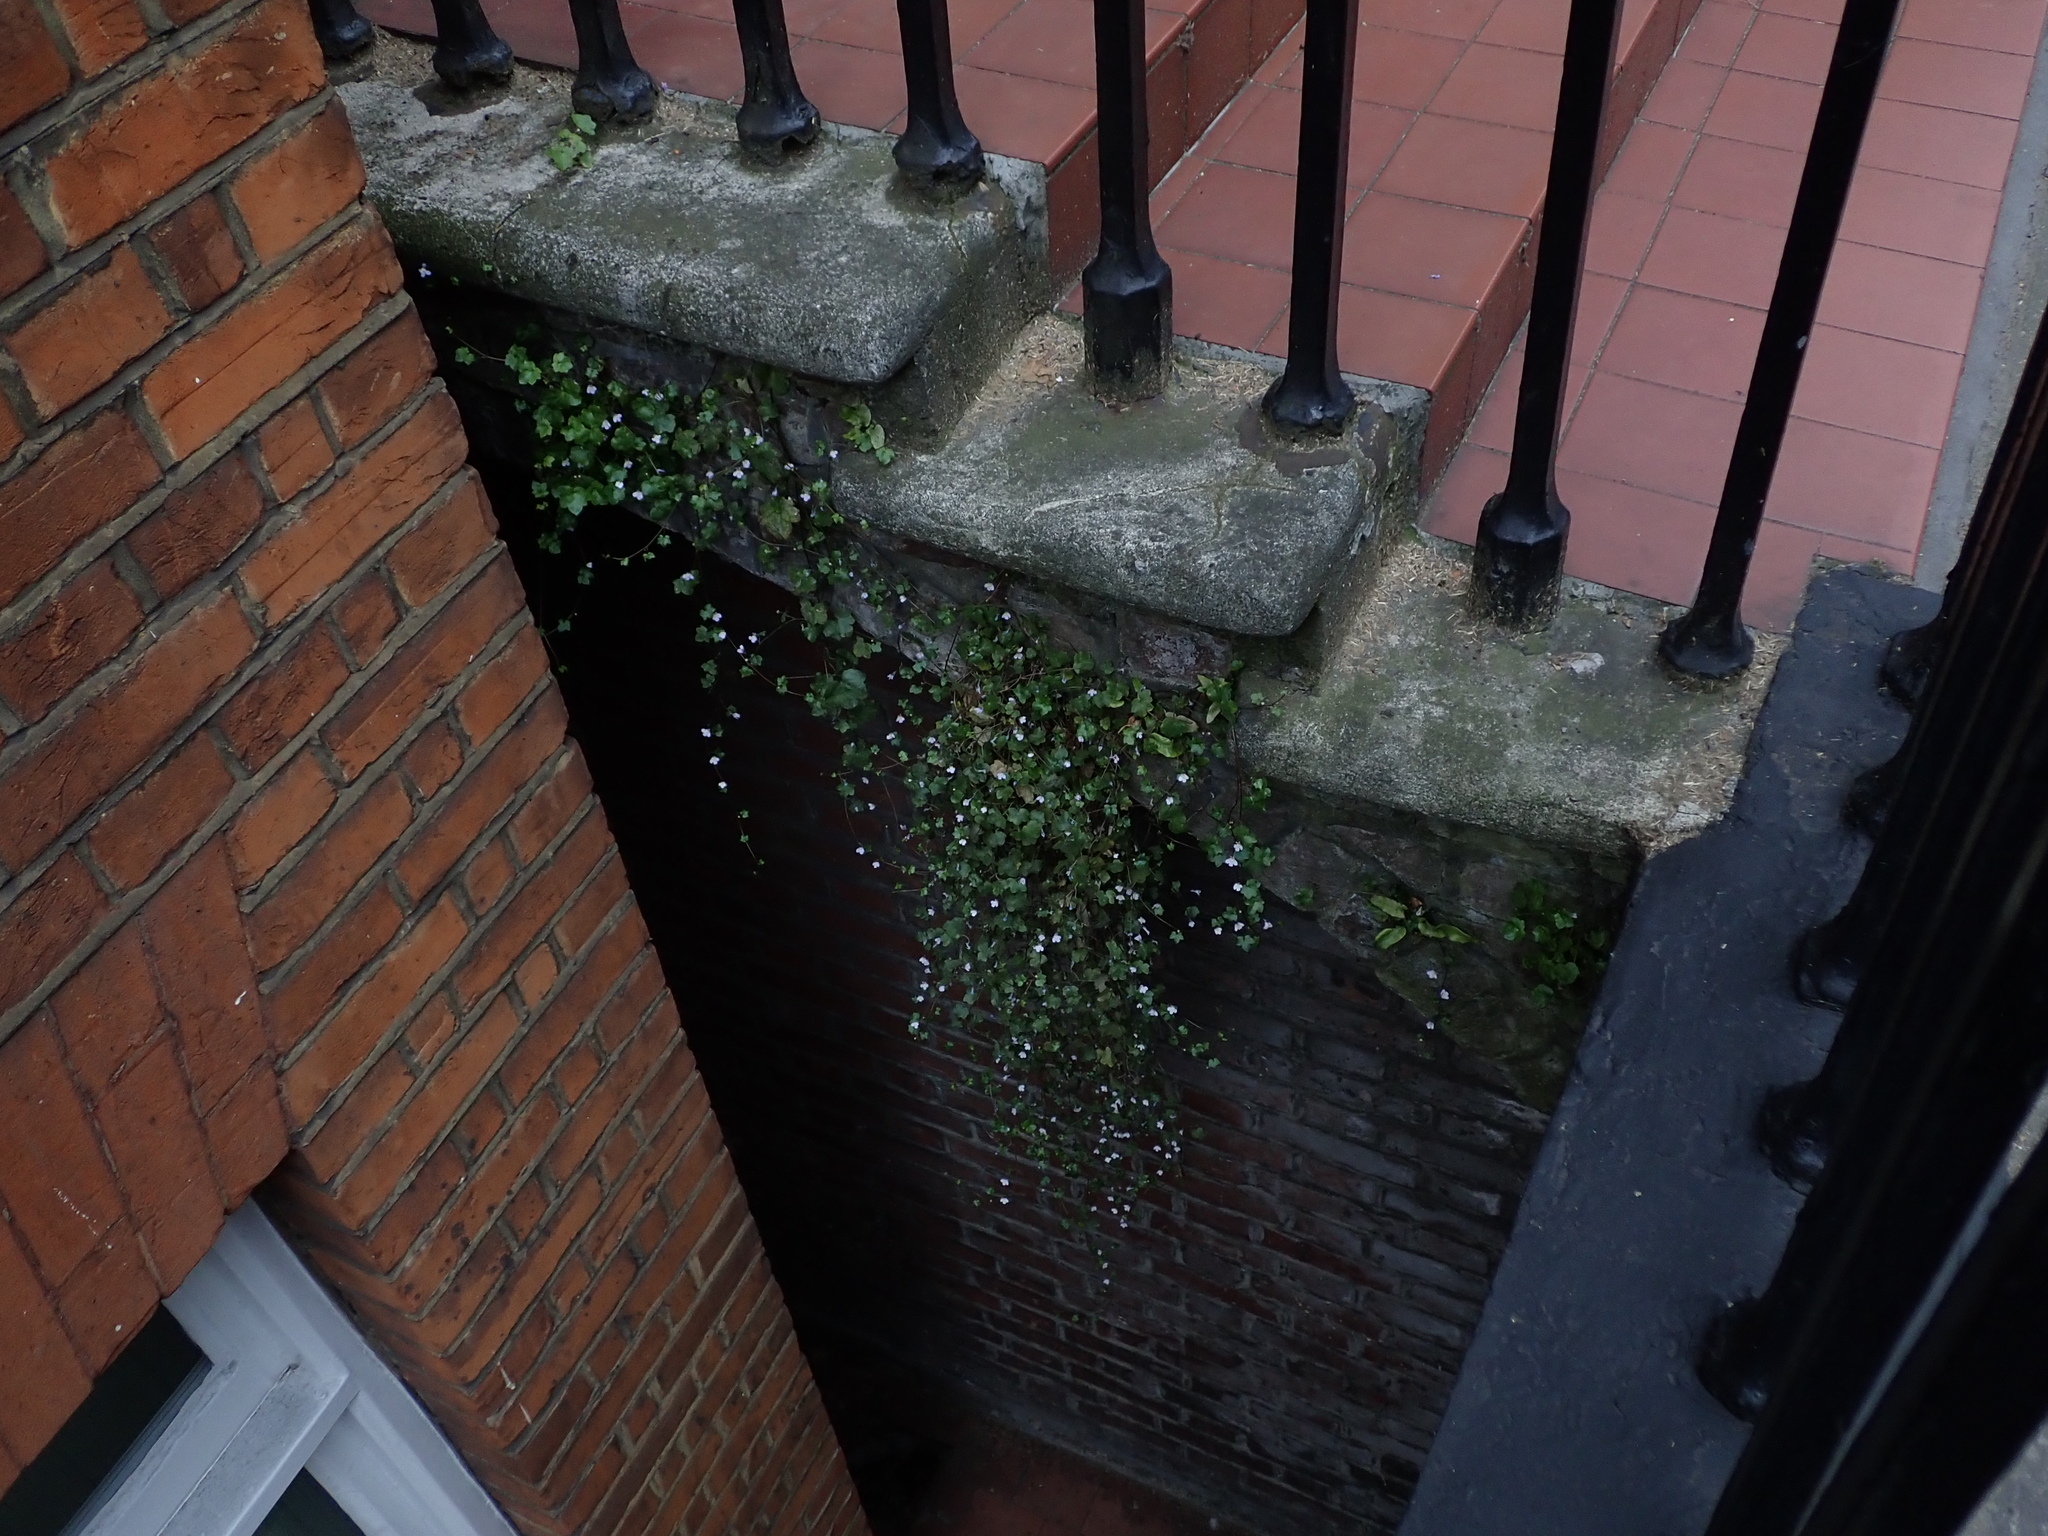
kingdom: Plantae
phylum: Tracheophyta
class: Magnoliopsida
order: Lamiales
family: Plantaginaceae
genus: Cymbalaria
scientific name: Cymbalaria muralis
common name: Ivy-leaved toadflax
